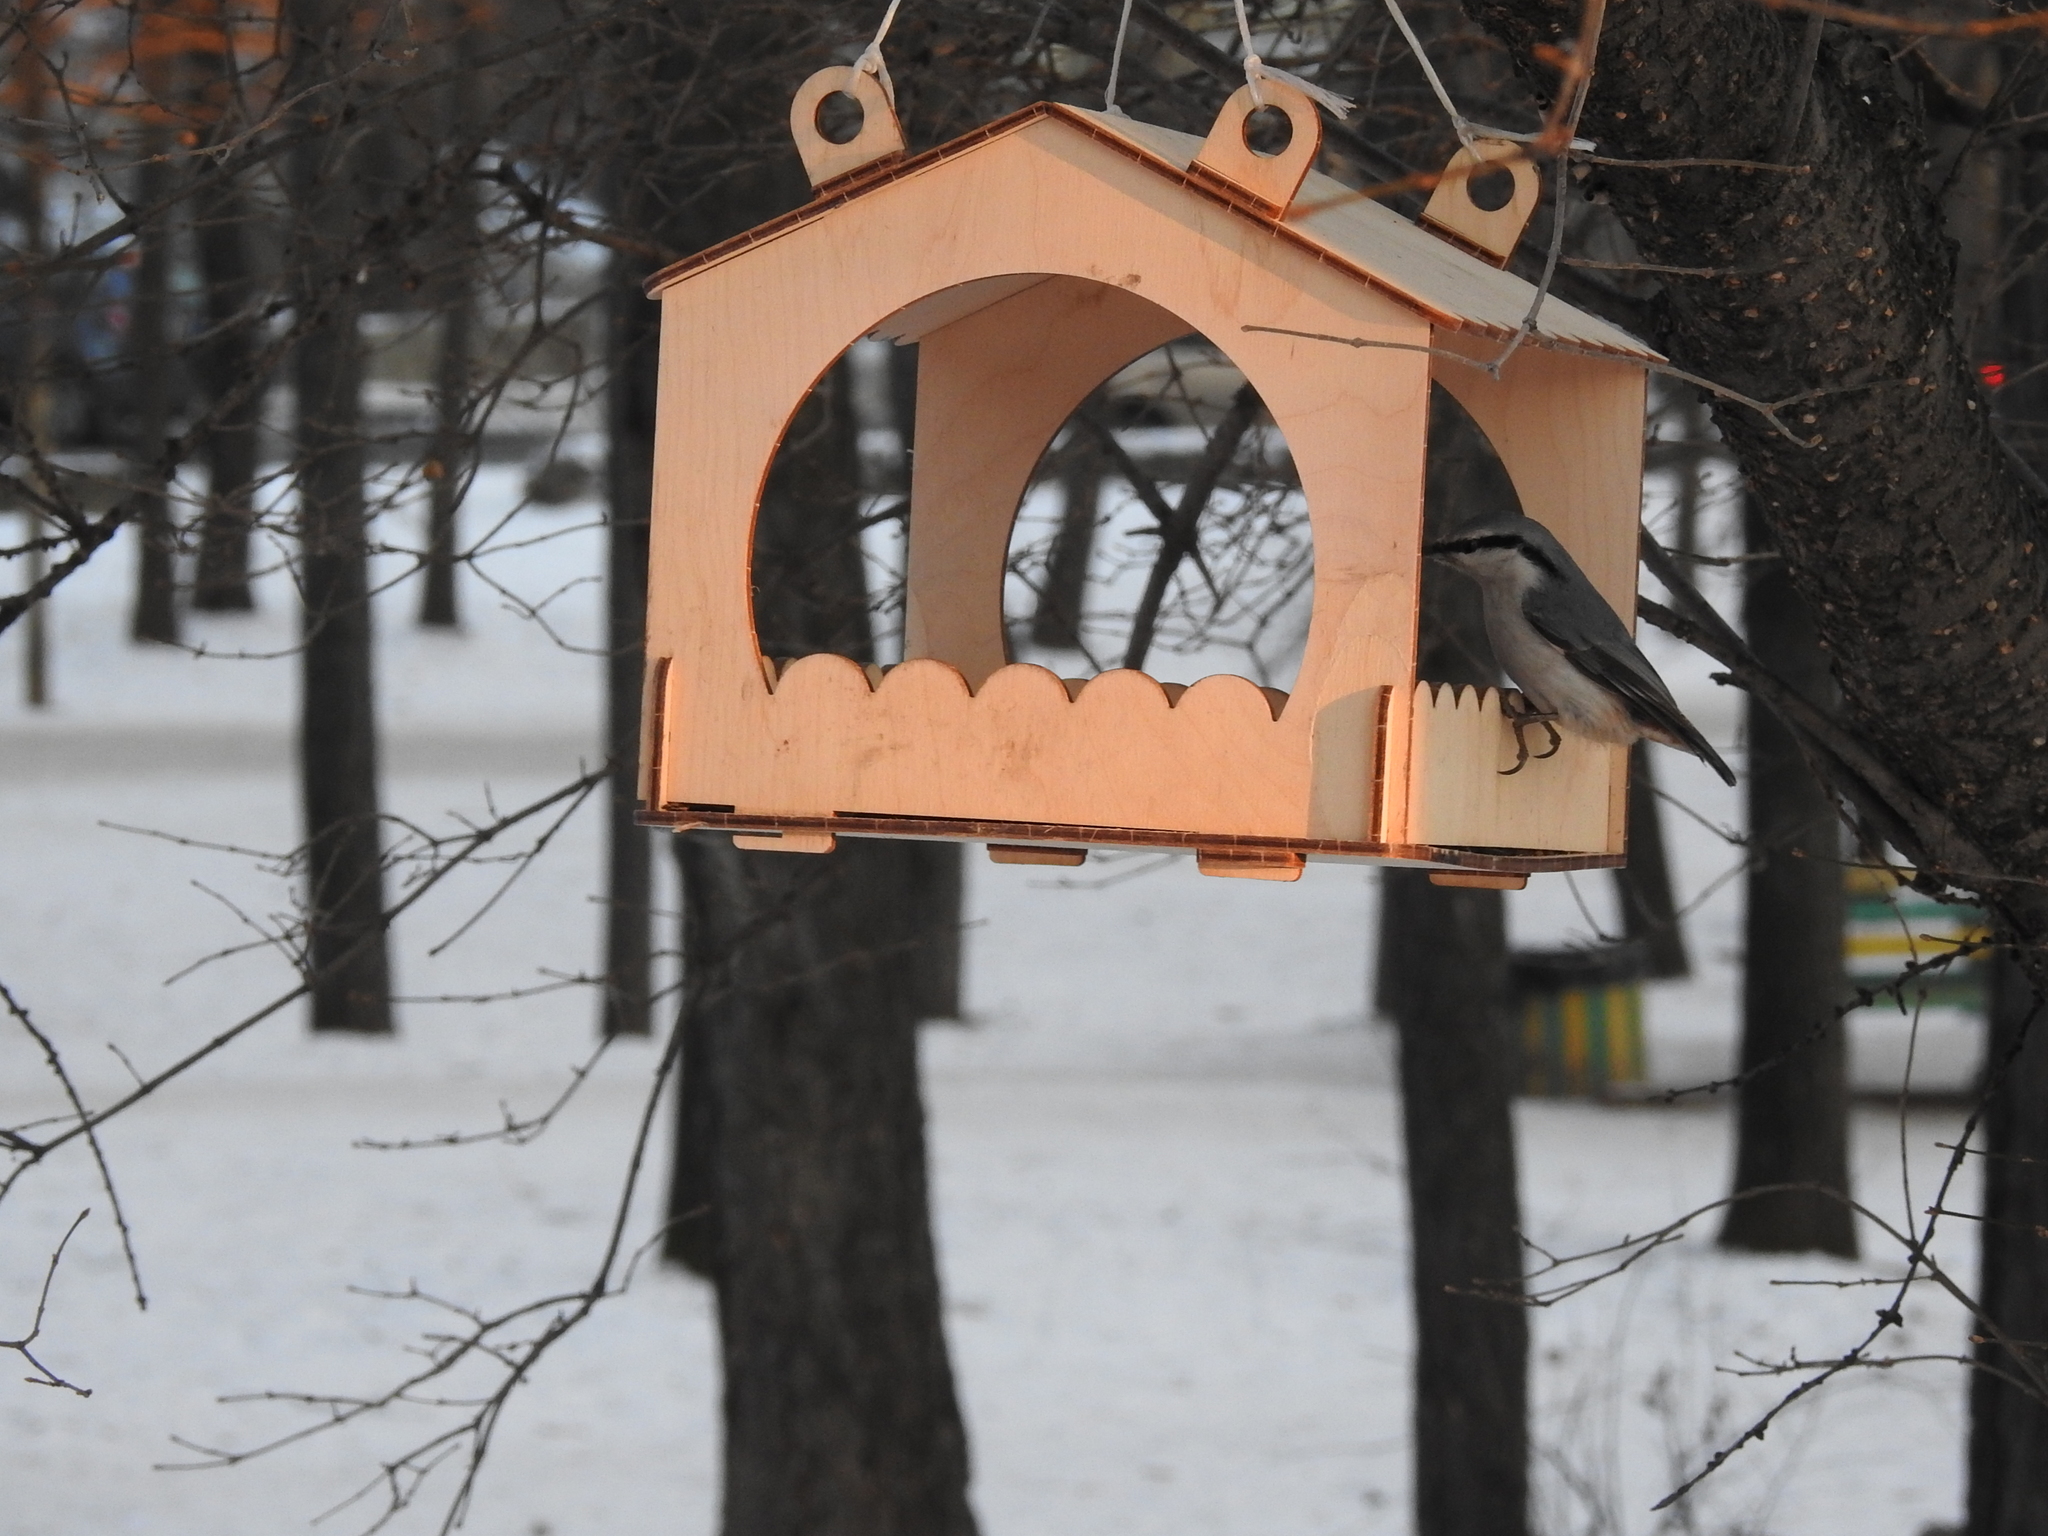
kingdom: Animalia
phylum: Chordata
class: Aves
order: Passeriformes
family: Sittidae
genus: Sitta
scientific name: Sitta europaea
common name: Eurasian nuthatch
